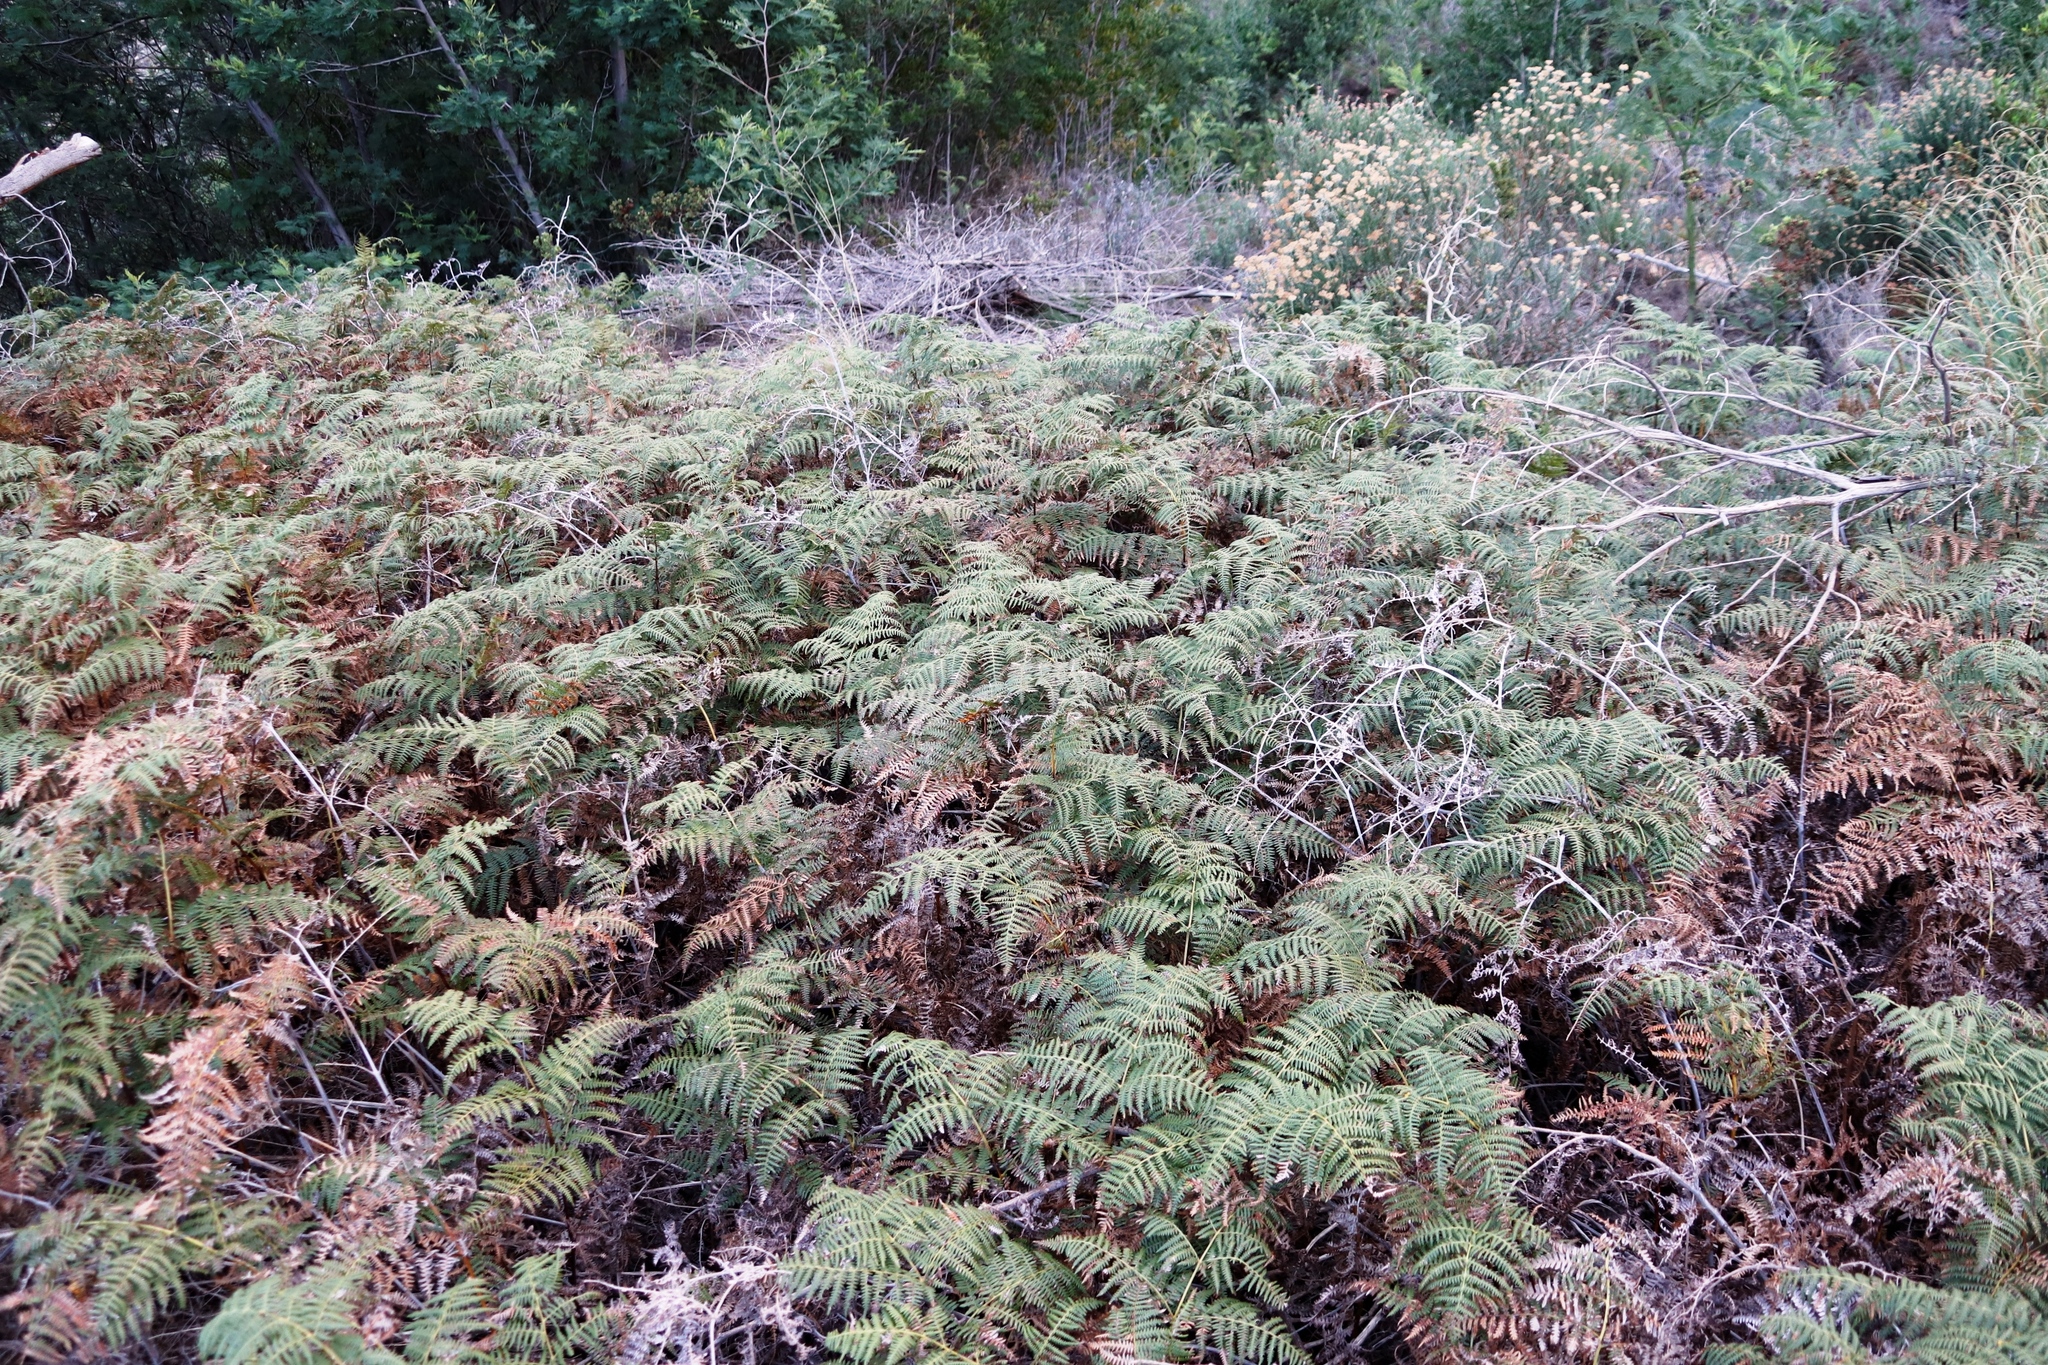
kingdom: Plantae
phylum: Tracheophyta
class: Polypodiopsida
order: Polypodiales
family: Dennstaedtiaceae
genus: Pteridium
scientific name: Pteridium aquilinum
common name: Bracken
